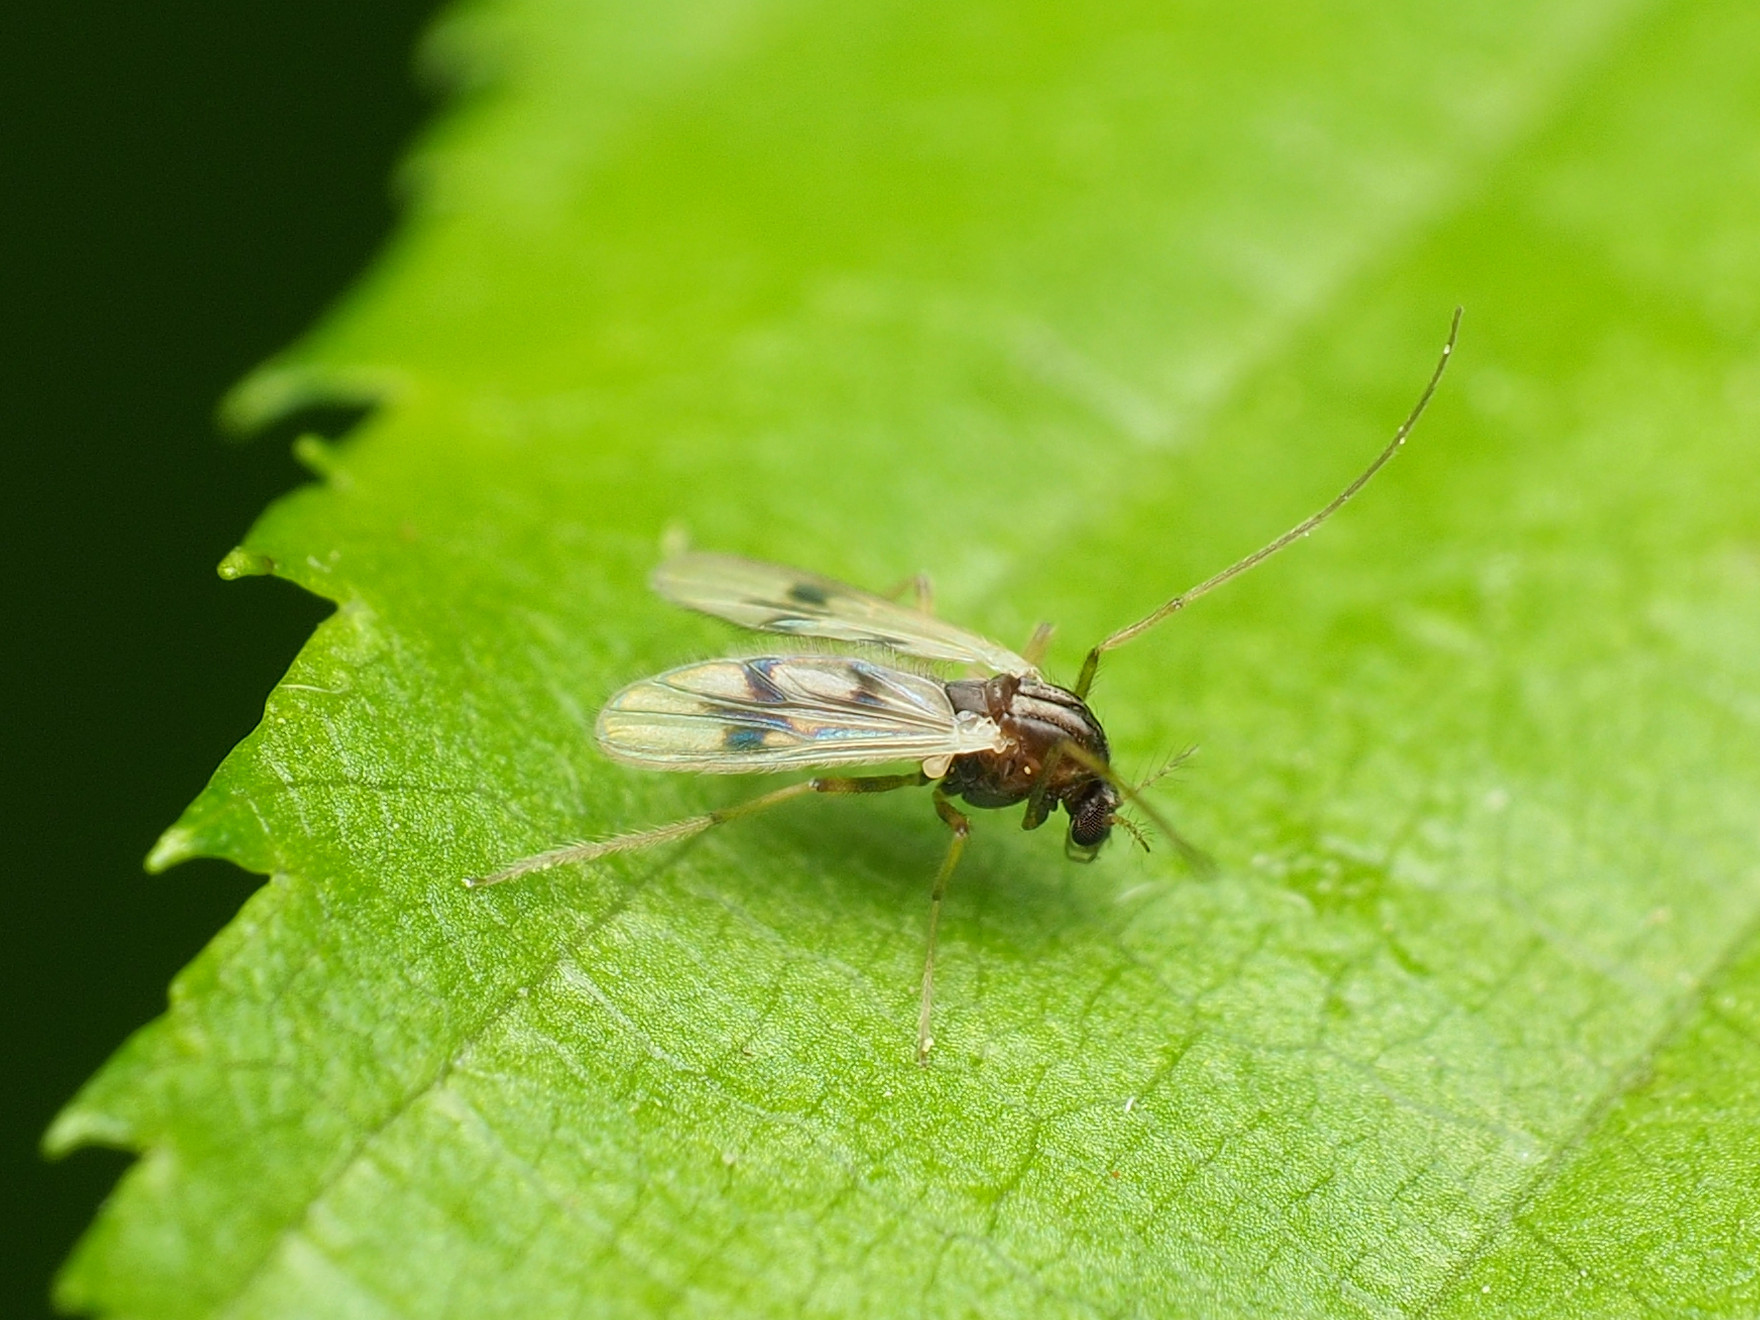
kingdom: Animalia
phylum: Arthropoda
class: Insecta
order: Diptera
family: Chironomidae
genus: Polypedilum
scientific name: Polypedilum scalaenum
